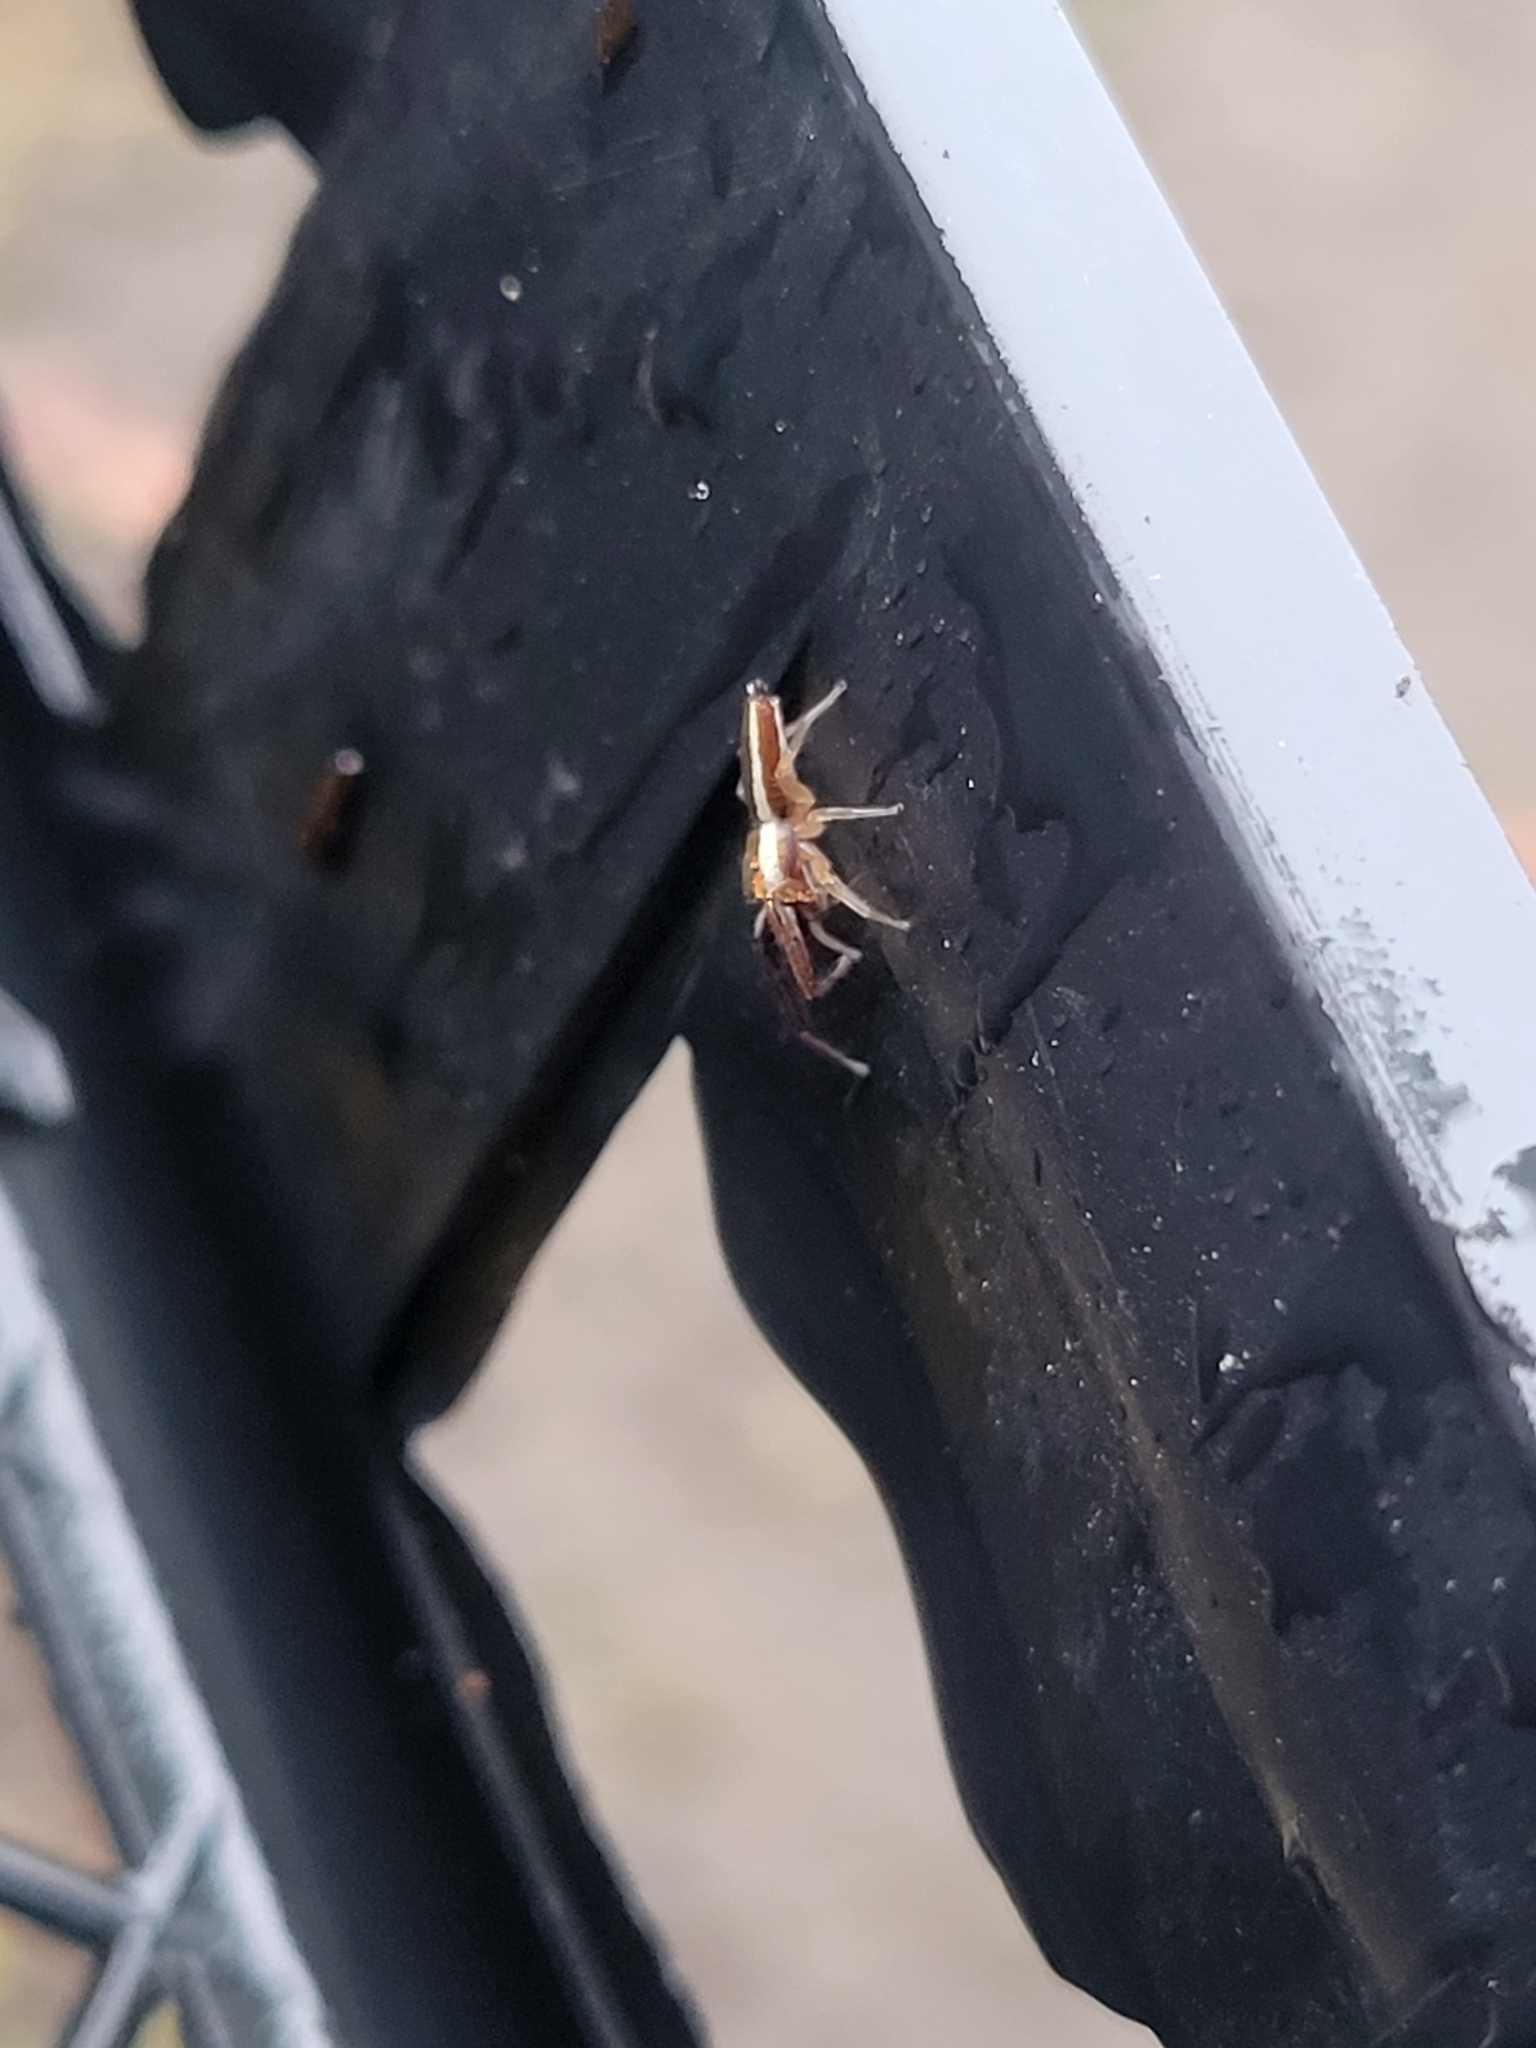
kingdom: Animalia
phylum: Arthropoda
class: Arachnida
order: Araneae
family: Salticidae
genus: Hentzia
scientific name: Hentzia palmarum
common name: Common hentz jumping spider
